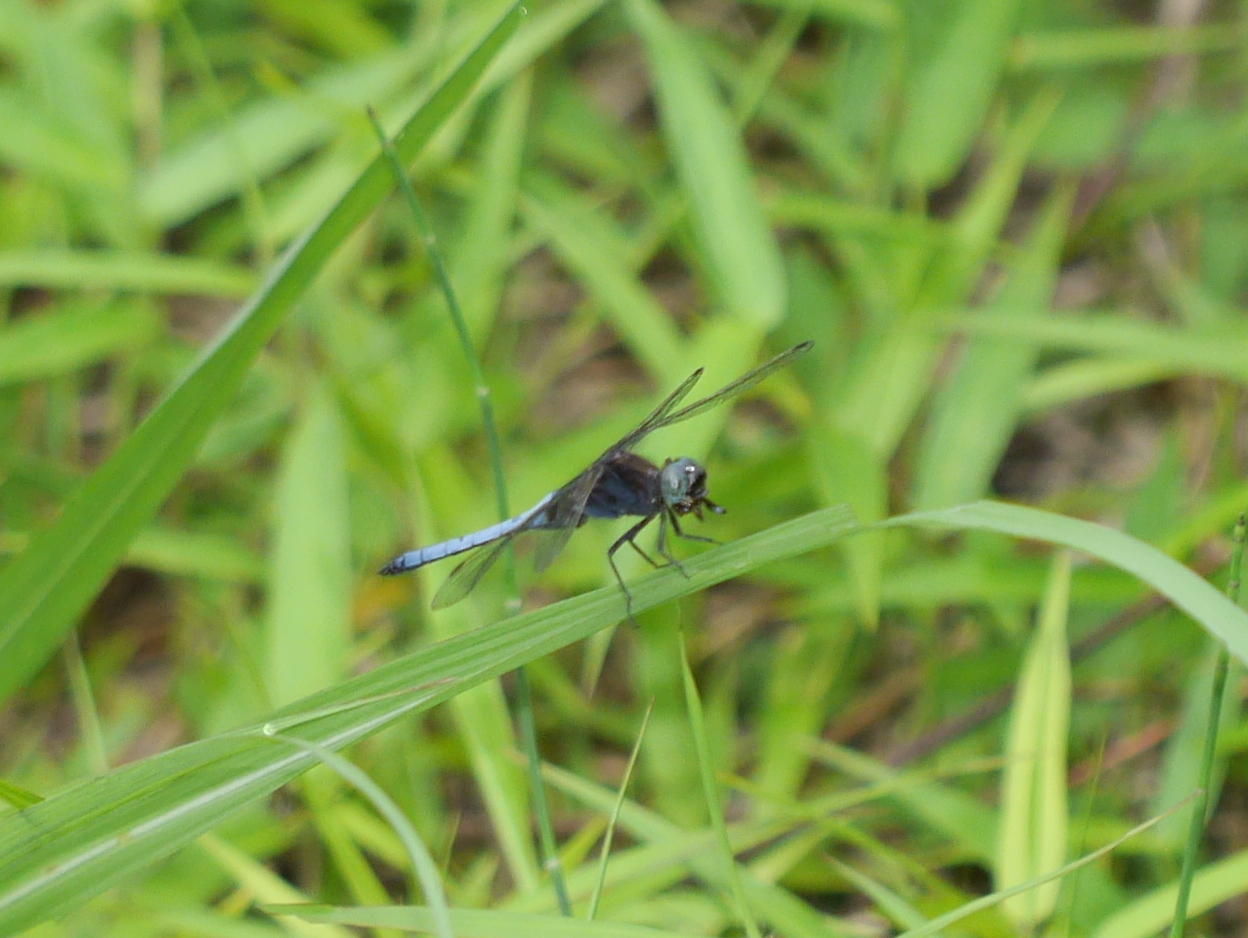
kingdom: Animalia
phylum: Arthropoda
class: Insecta
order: Odonata
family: Libellulidae
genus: Orthetrum
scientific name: Orthetrum glaucum
